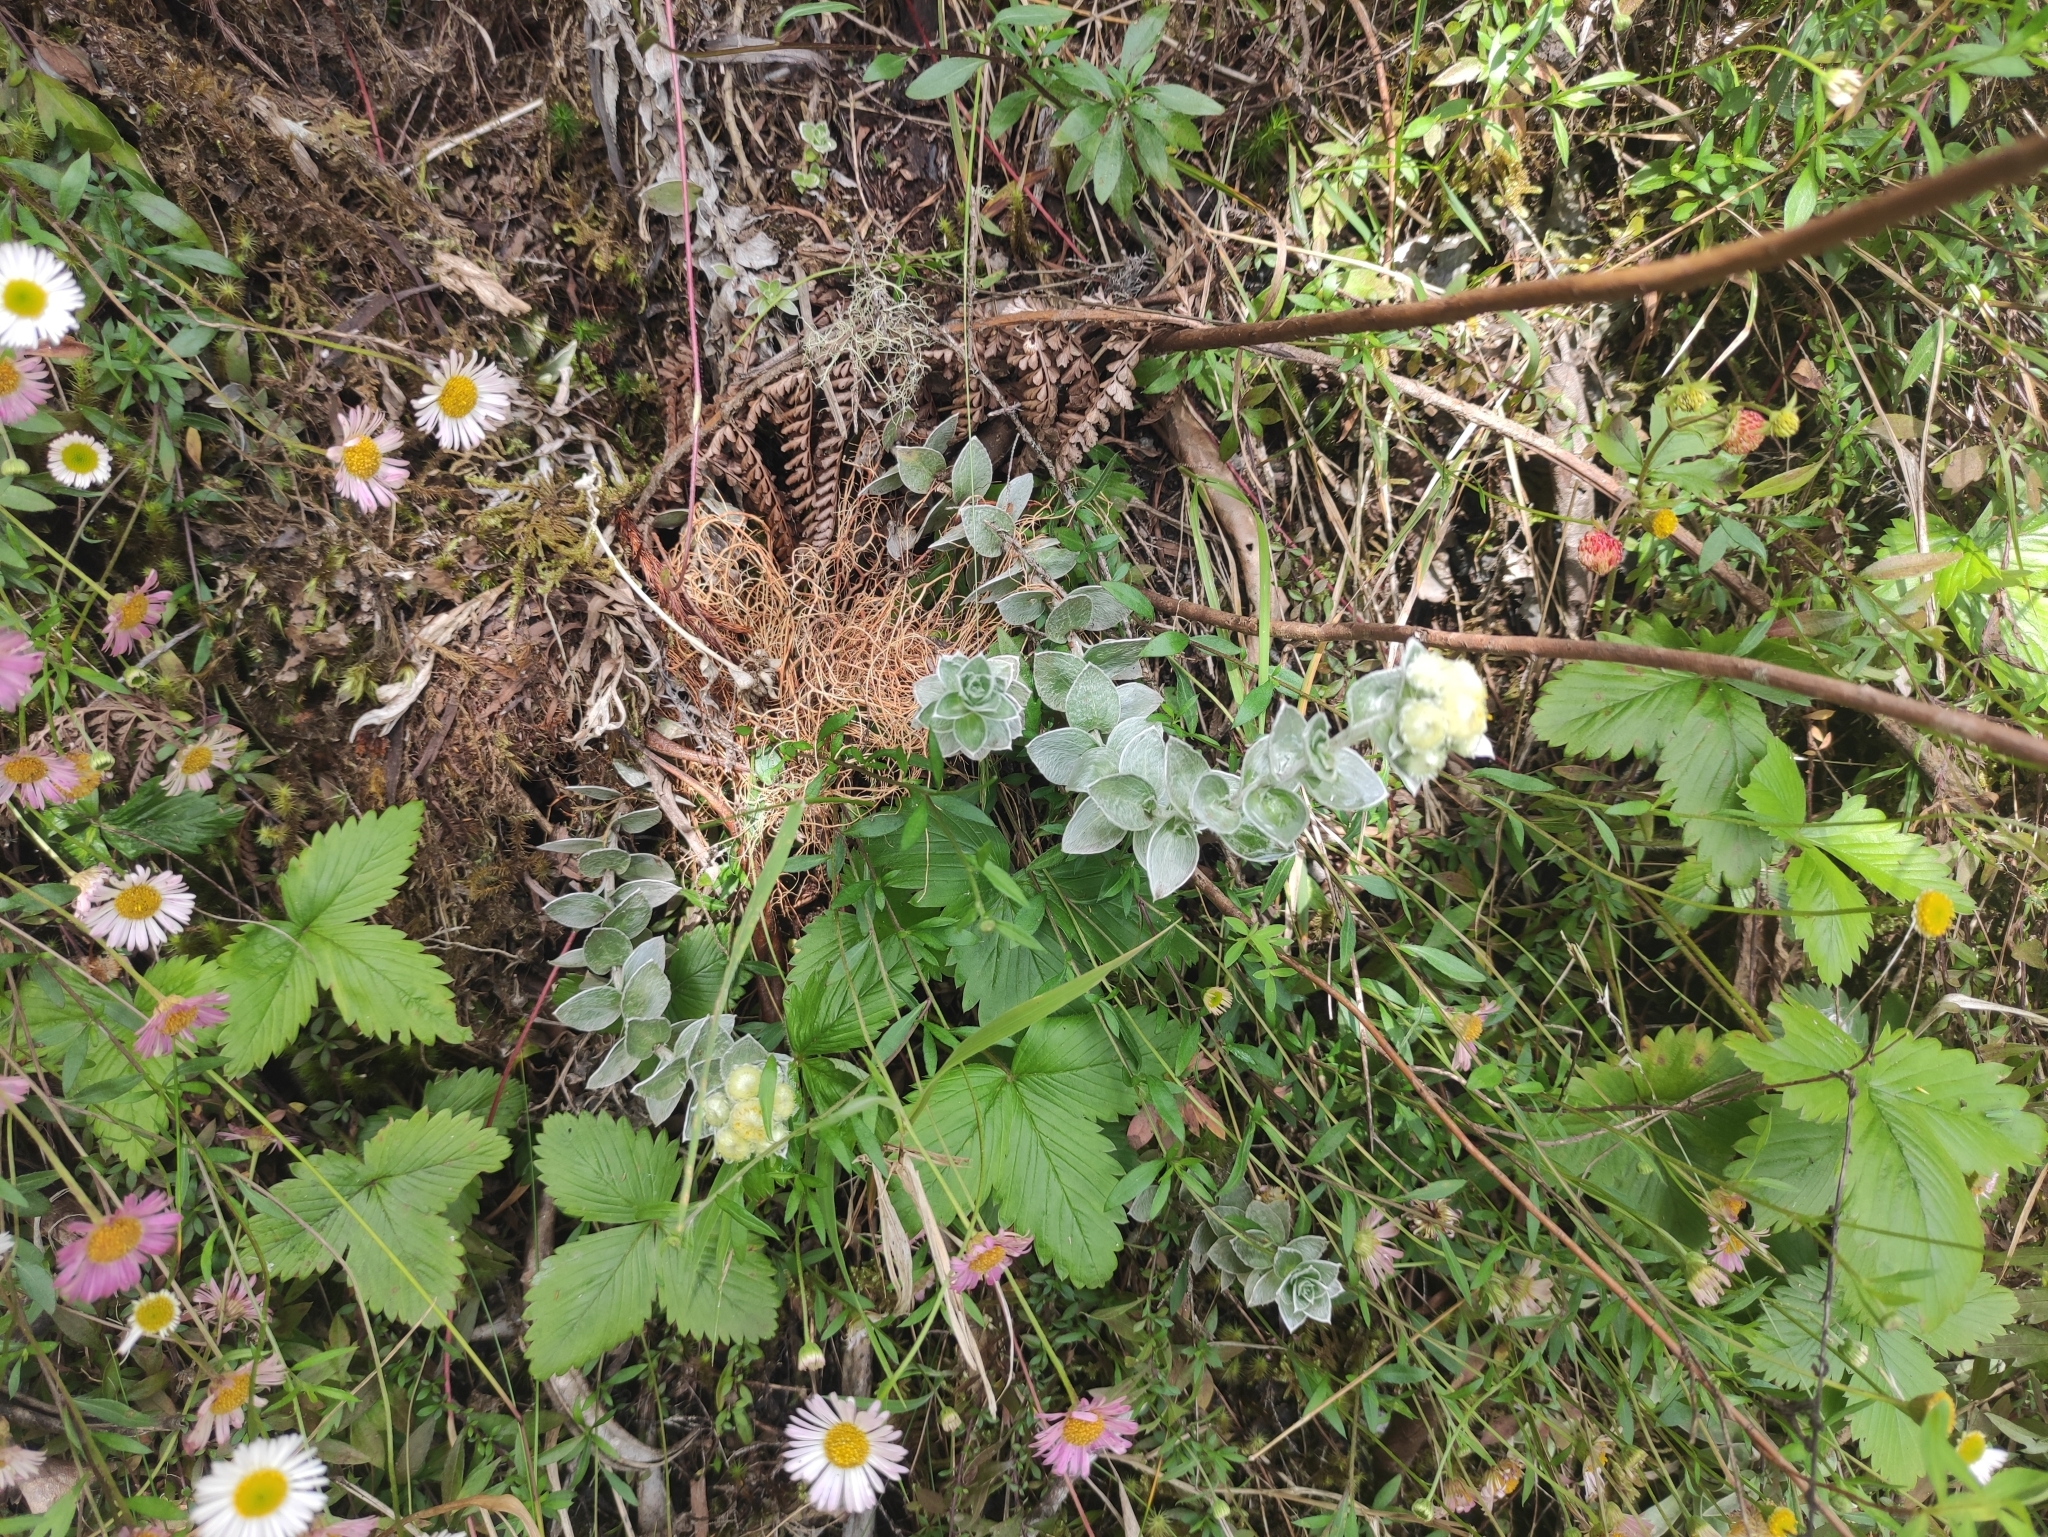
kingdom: Plantae
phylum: Tracheophyta
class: Magnoliopsida
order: Asterales
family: Asteraceae
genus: Psiadia
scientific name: Psiadia argentea
